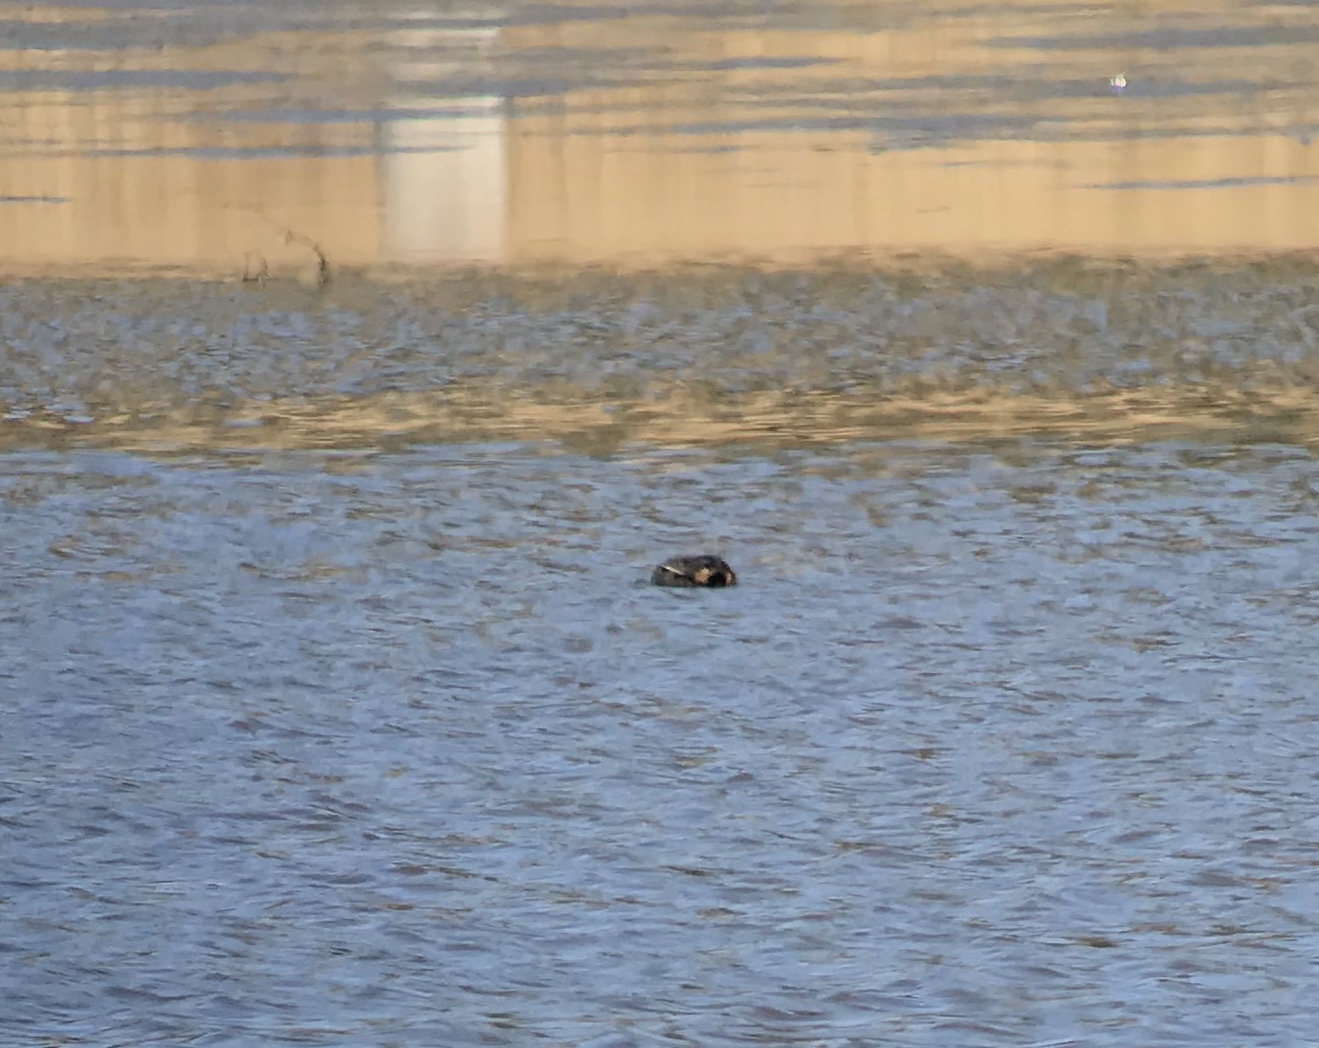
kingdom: Animalia
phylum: Chordata
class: Aves
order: Anseriformes
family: Anatidae
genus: Anas
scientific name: Anas crecca
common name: Eurasian teal
